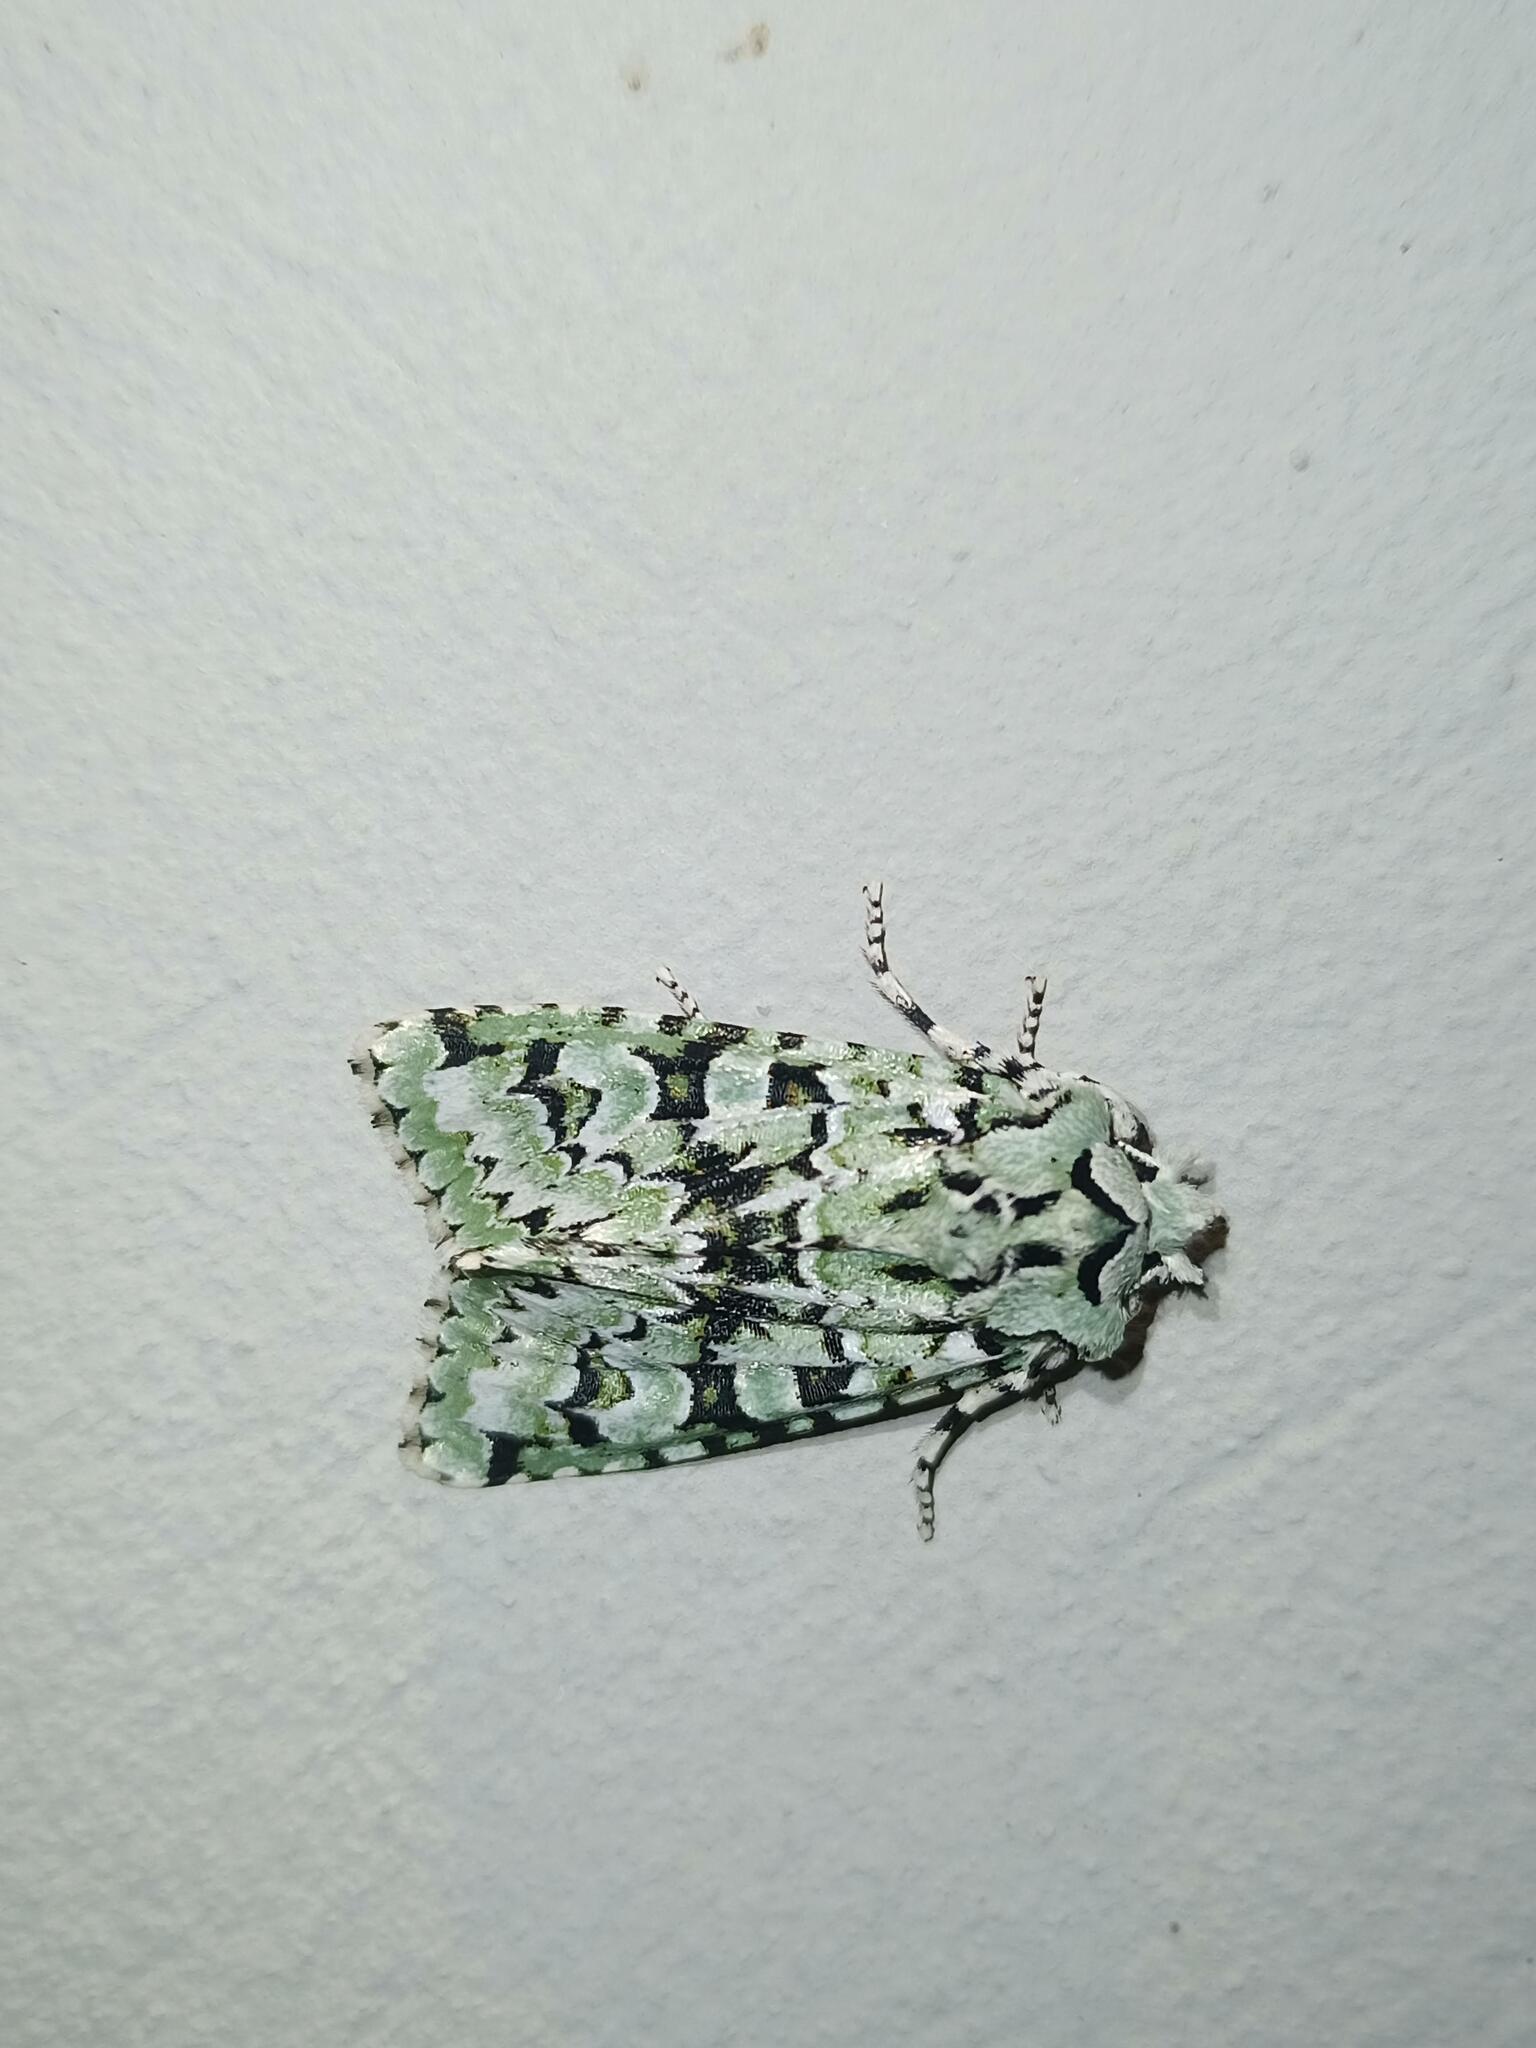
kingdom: Animalia
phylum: Arthropoda
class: Insecta
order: Lepidoptera
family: Noctuidae
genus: Griposia
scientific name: Griposia aprilina
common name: Merveille du jour
